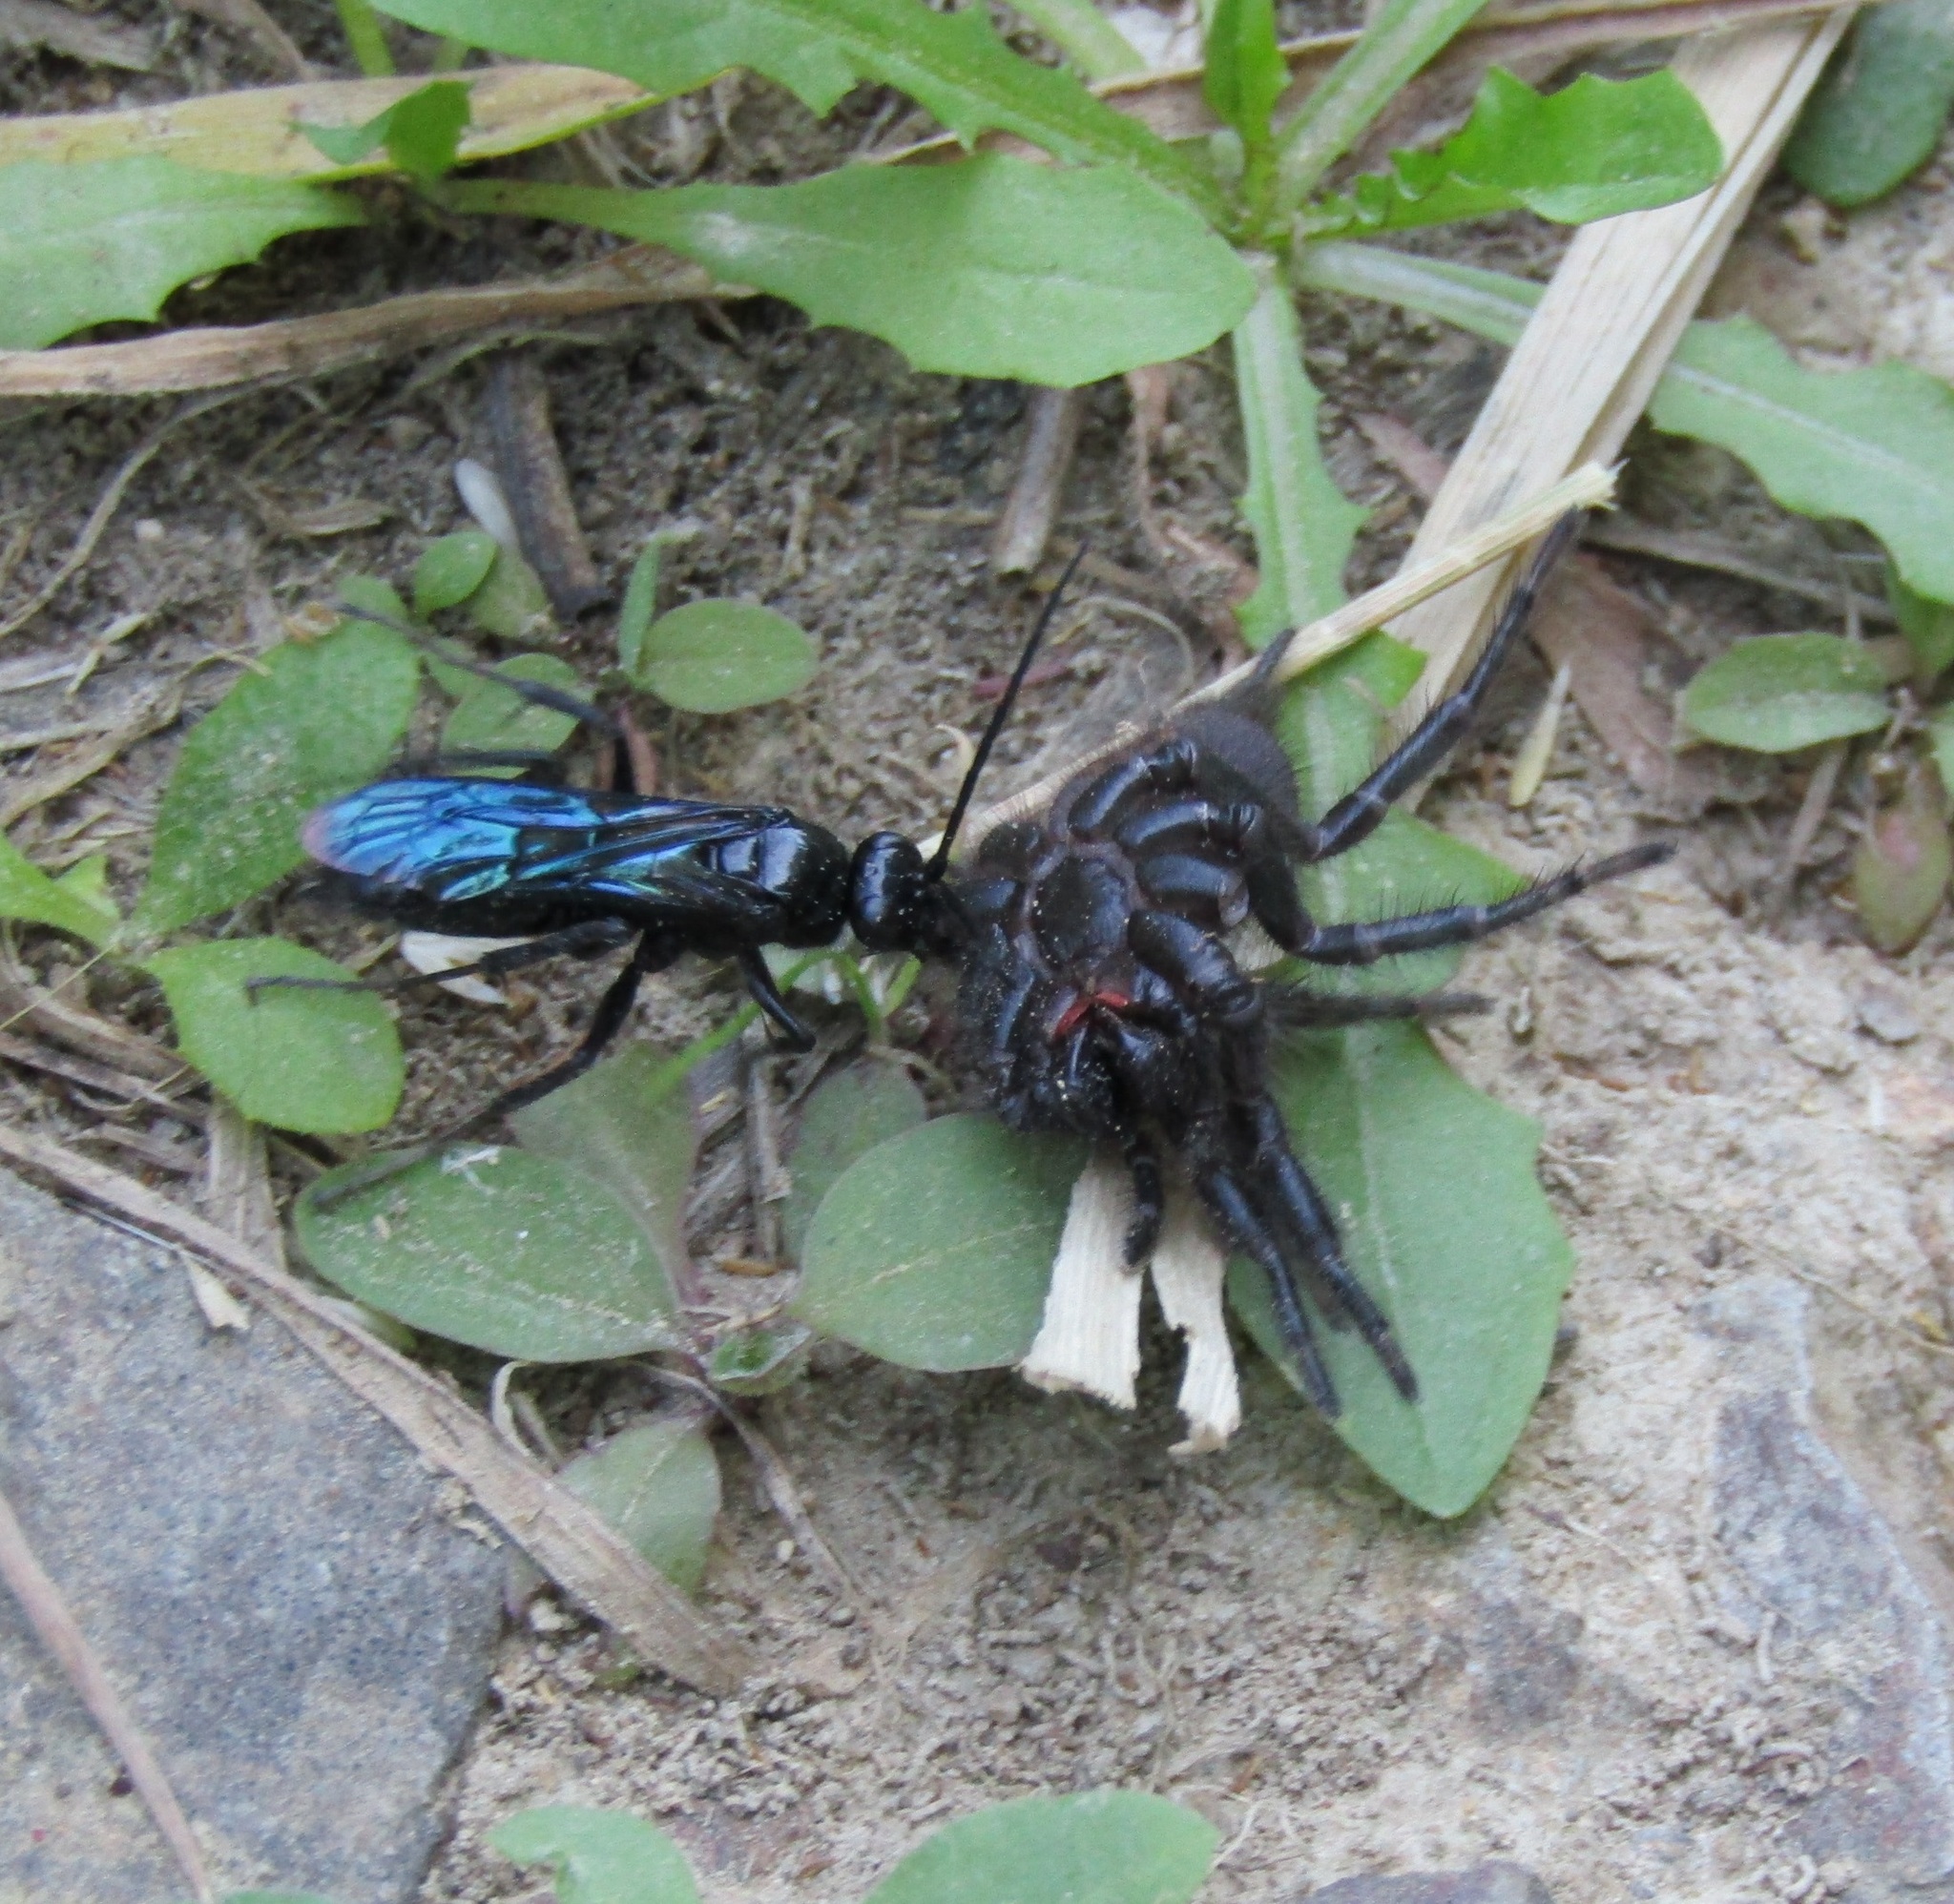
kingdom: Animalia
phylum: Arthropoda
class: Insecta
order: Hymenoptera
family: Pompilidae
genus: Priocnemis
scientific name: Priocnemis monachus
